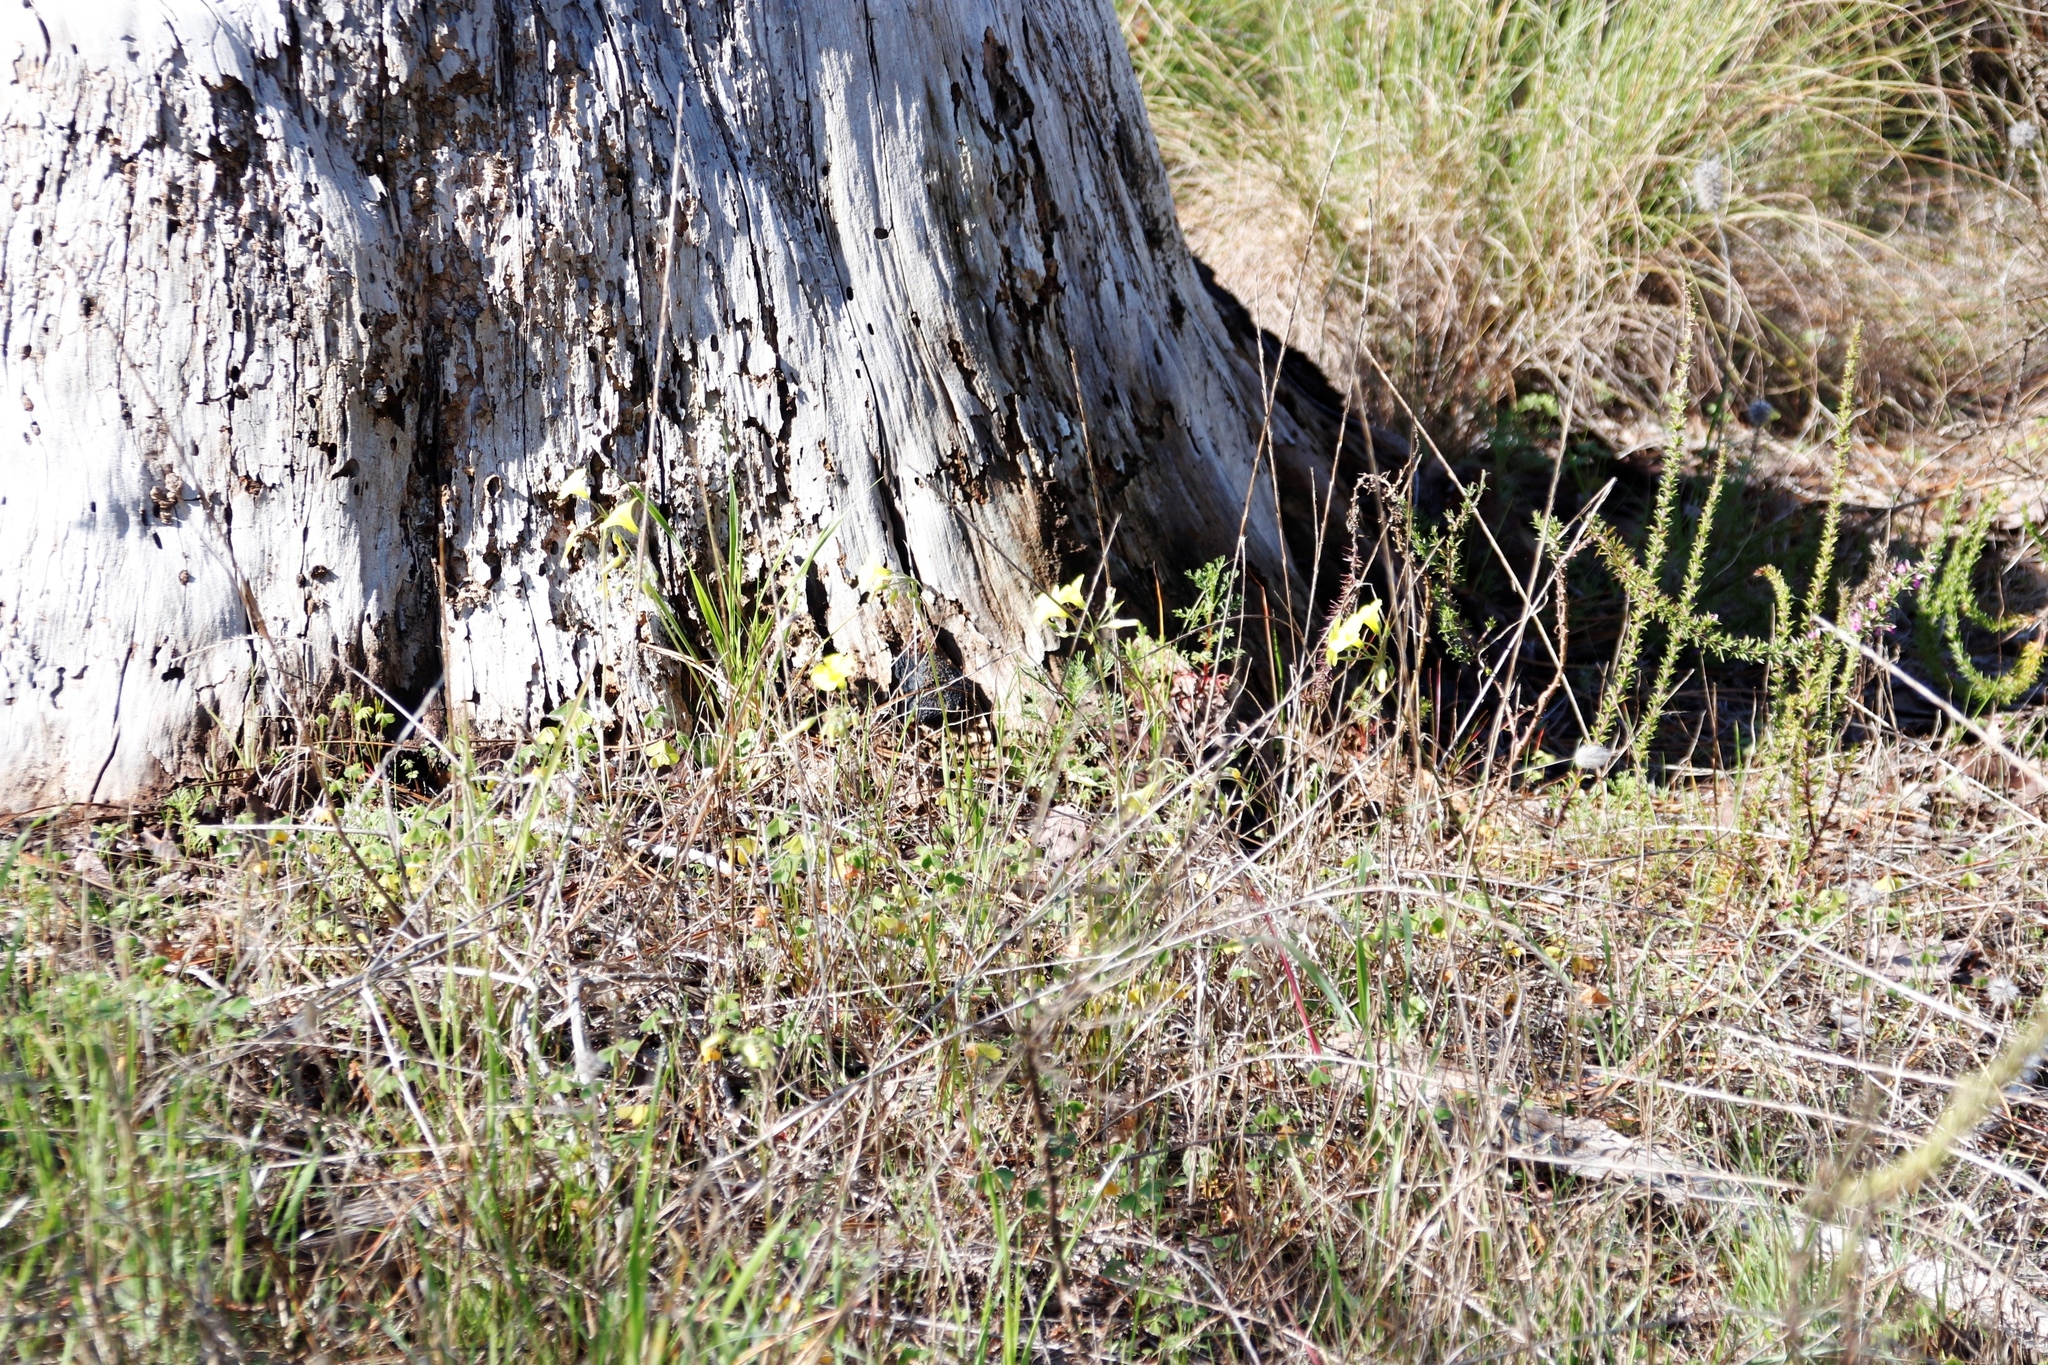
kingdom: Plantae
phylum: Tracheophyta
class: Magnoliopsida
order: Oxalidales
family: Oxalidaceae
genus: Oxalis
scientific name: Oxalis pes-caprae
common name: Bermuda-buttercup
